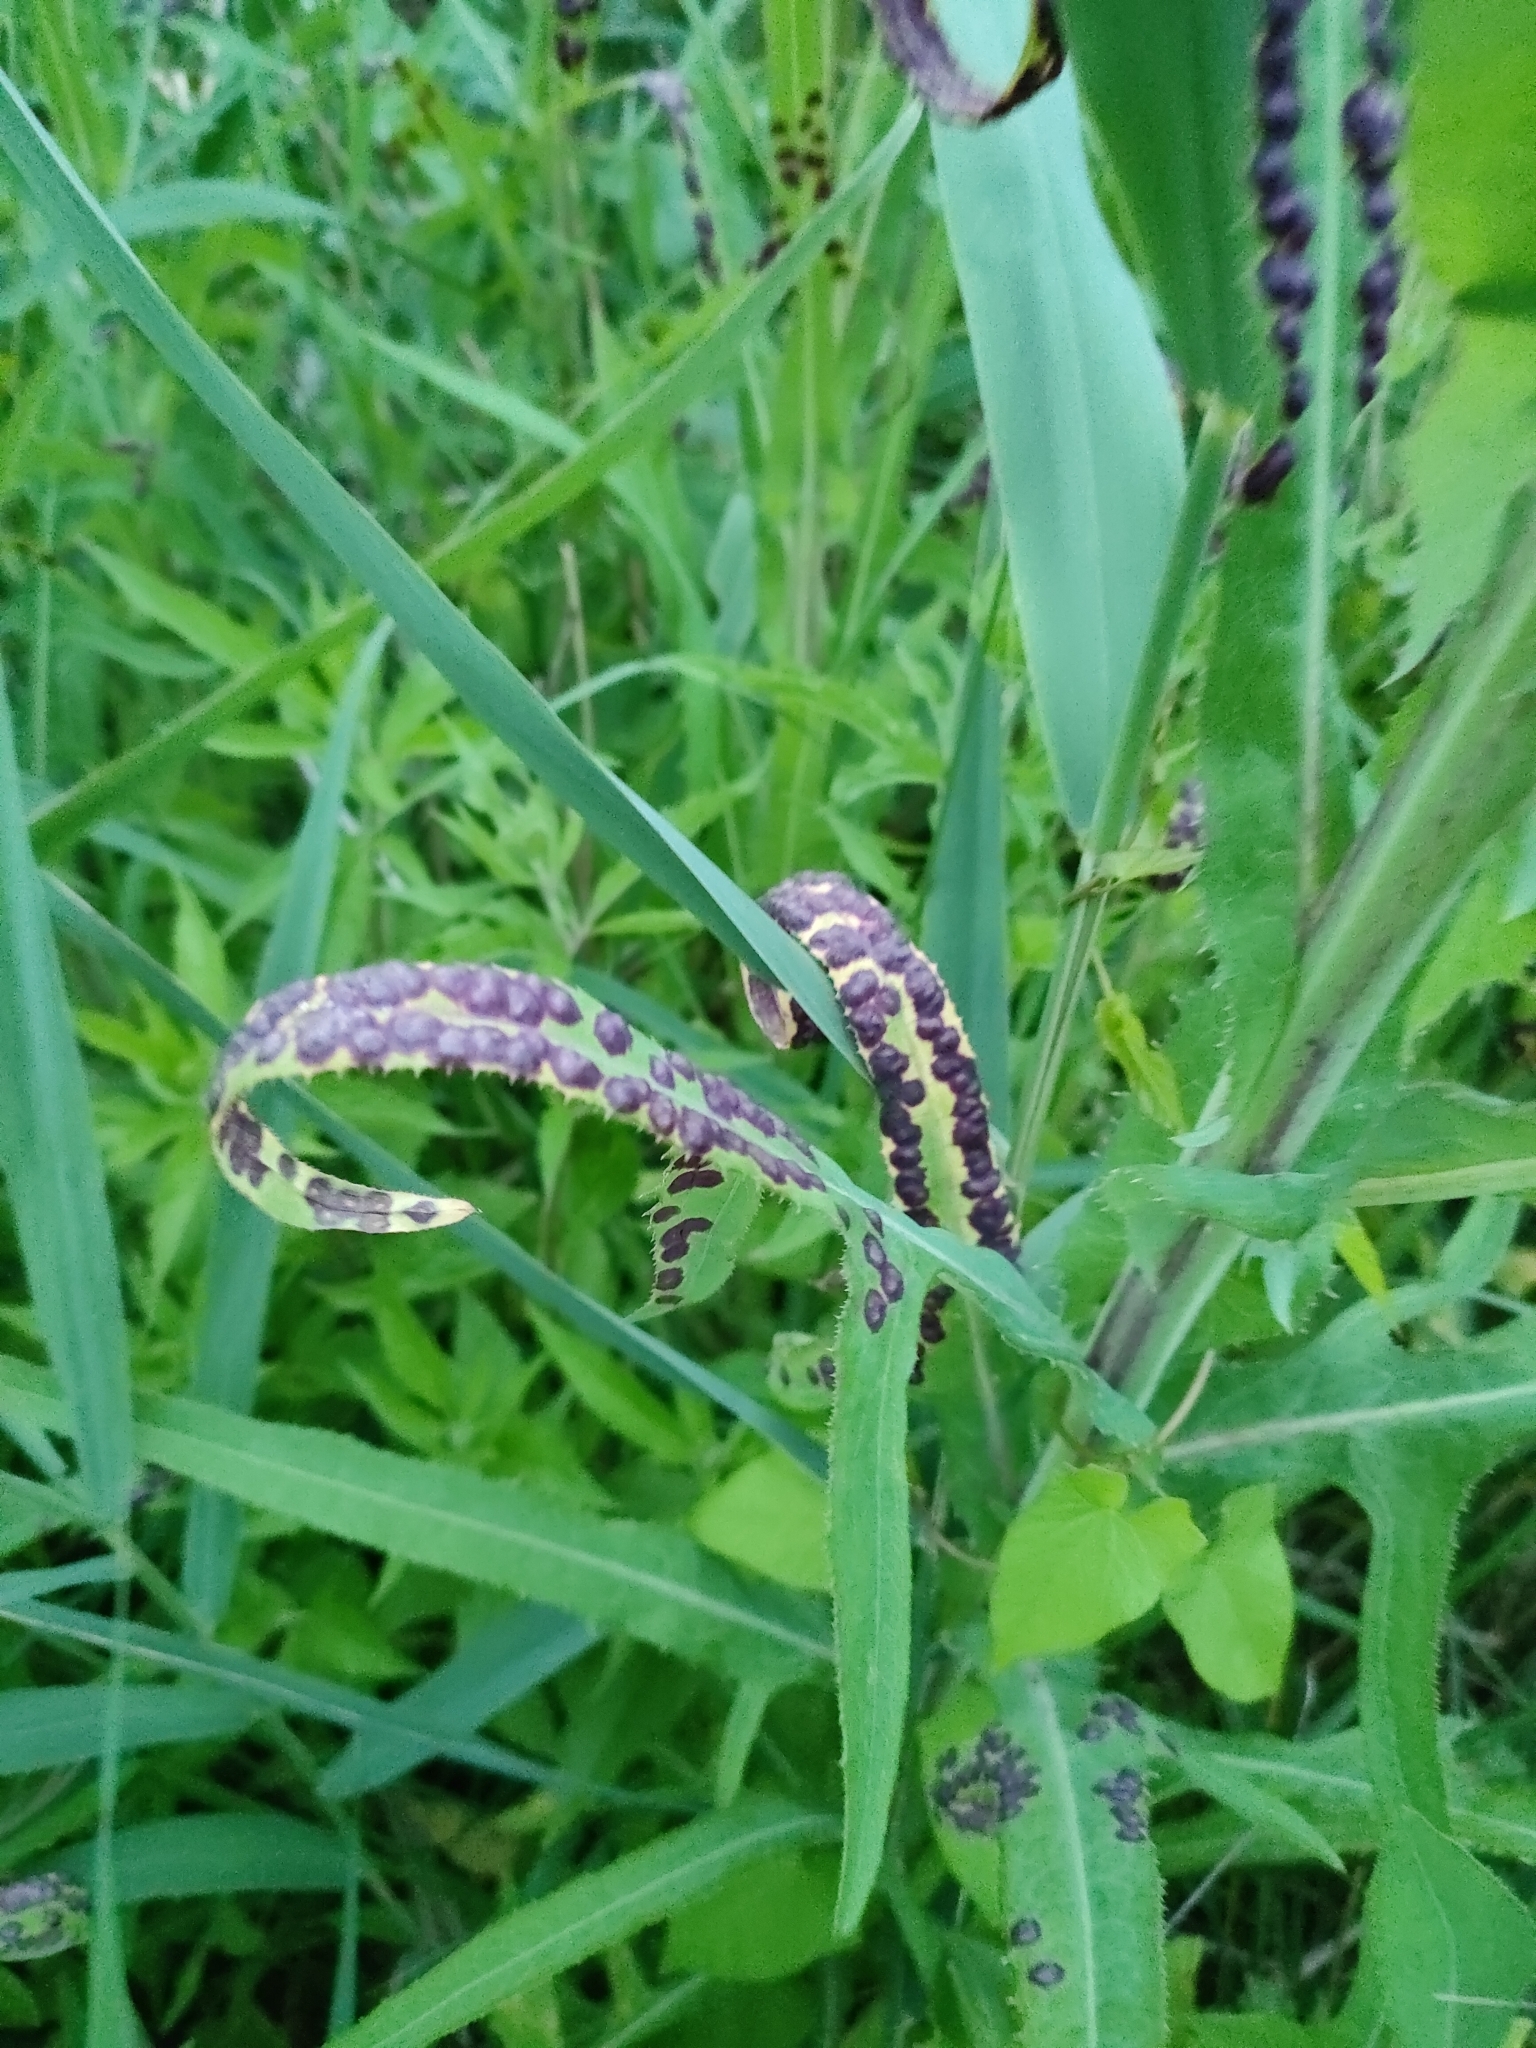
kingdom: Animalia
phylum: Arthropoda
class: Insecta
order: Diptera
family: Cecidomyiidae
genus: Cystiphora
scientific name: Cystiphora sonchi
